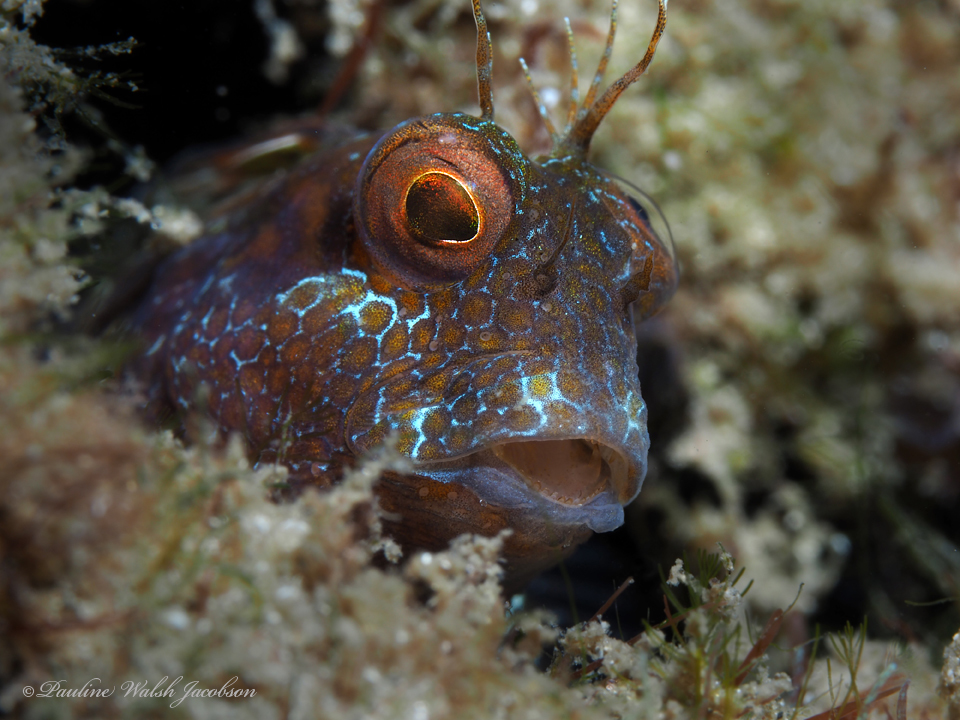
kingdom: Animalia
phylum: Chordata
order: Perciformes
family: Blenniidae
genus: Parablennius
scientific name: Parablennius marmoreus
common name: Seaweed blenny
